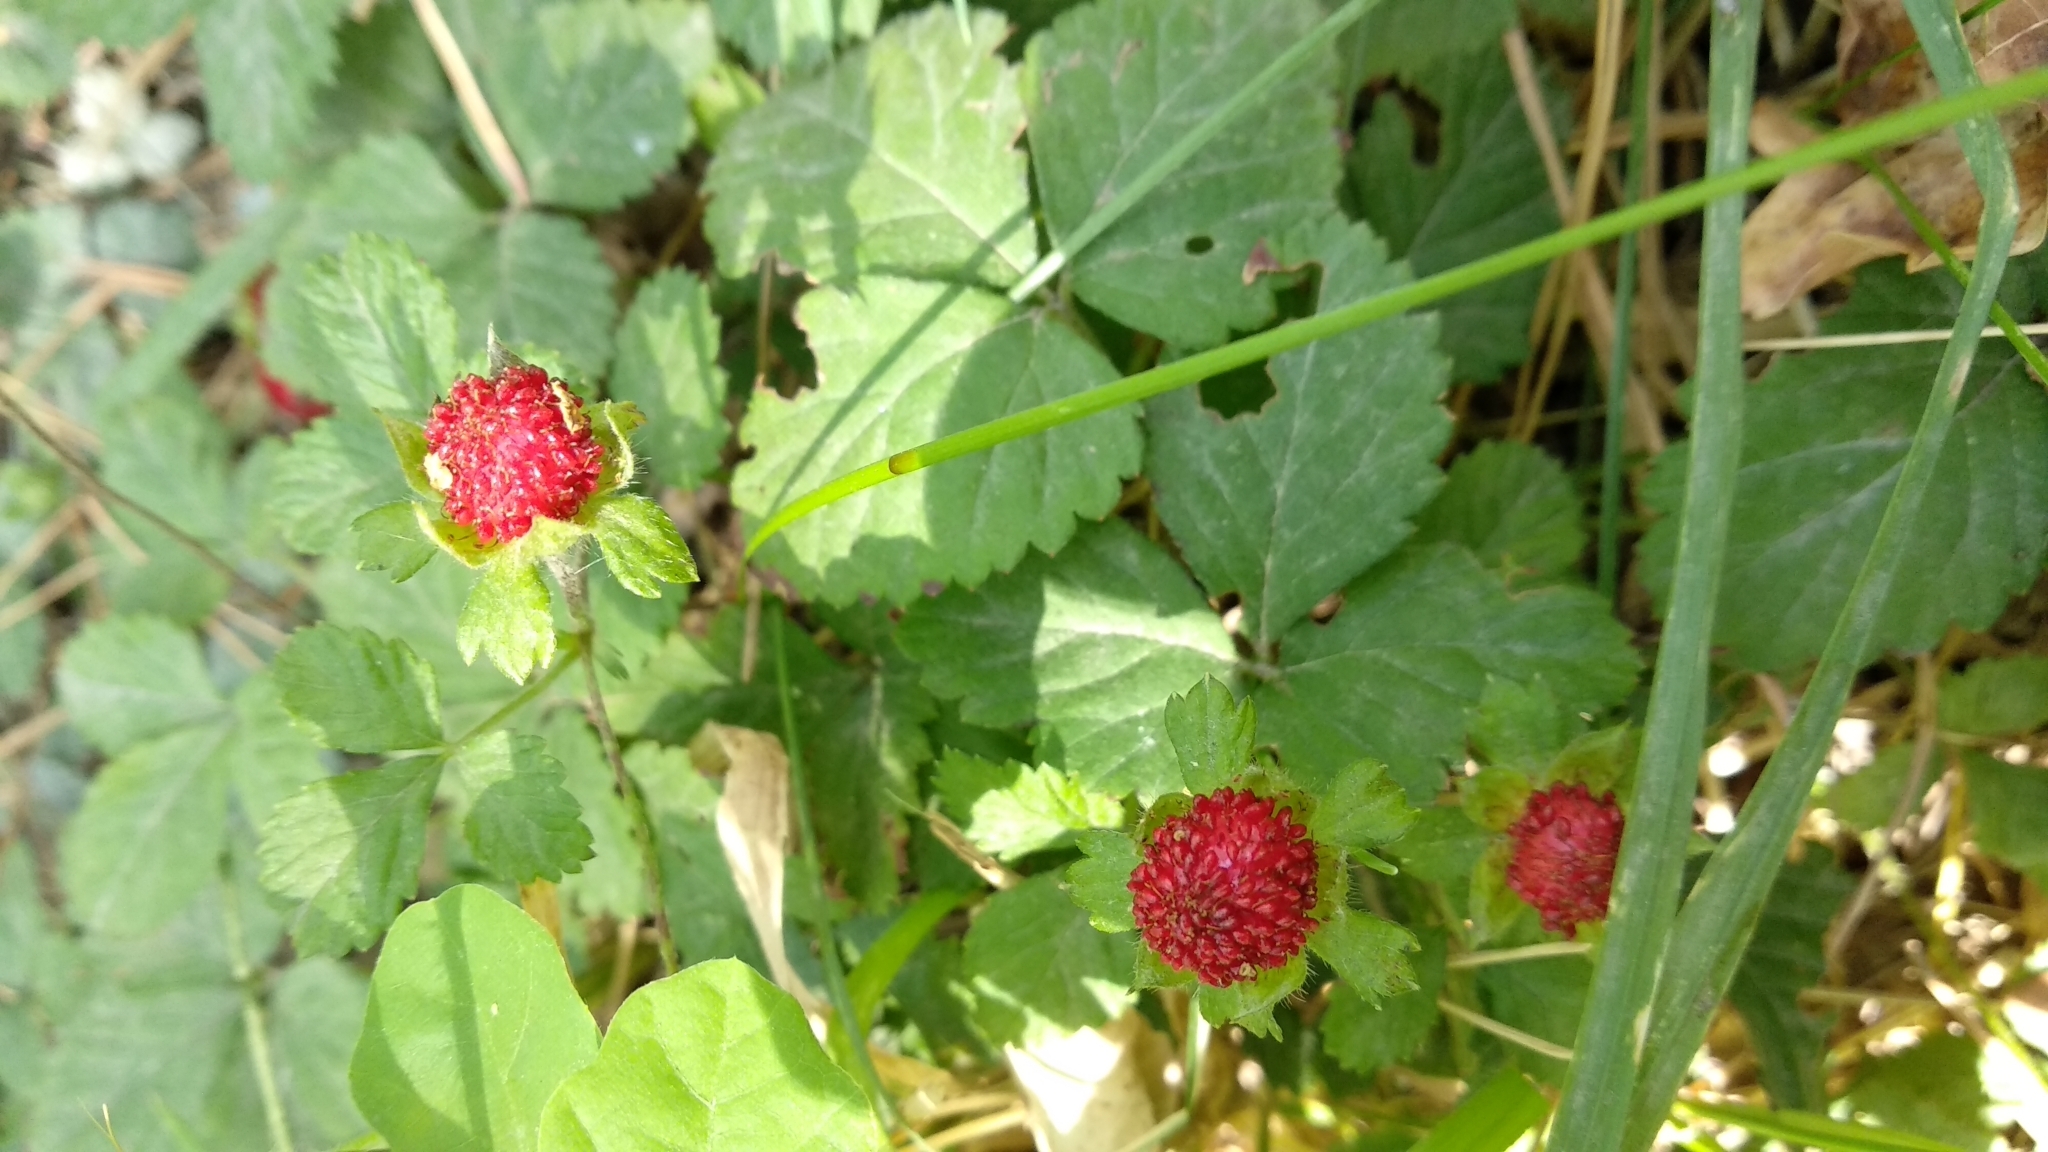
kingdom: Plantae
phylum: Tracheophyta
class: Magnoliopsida
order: Rosales
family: Rosaceae
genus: Potentilla
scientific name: Potentilla indica
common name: Yellow-flowered strawberry
